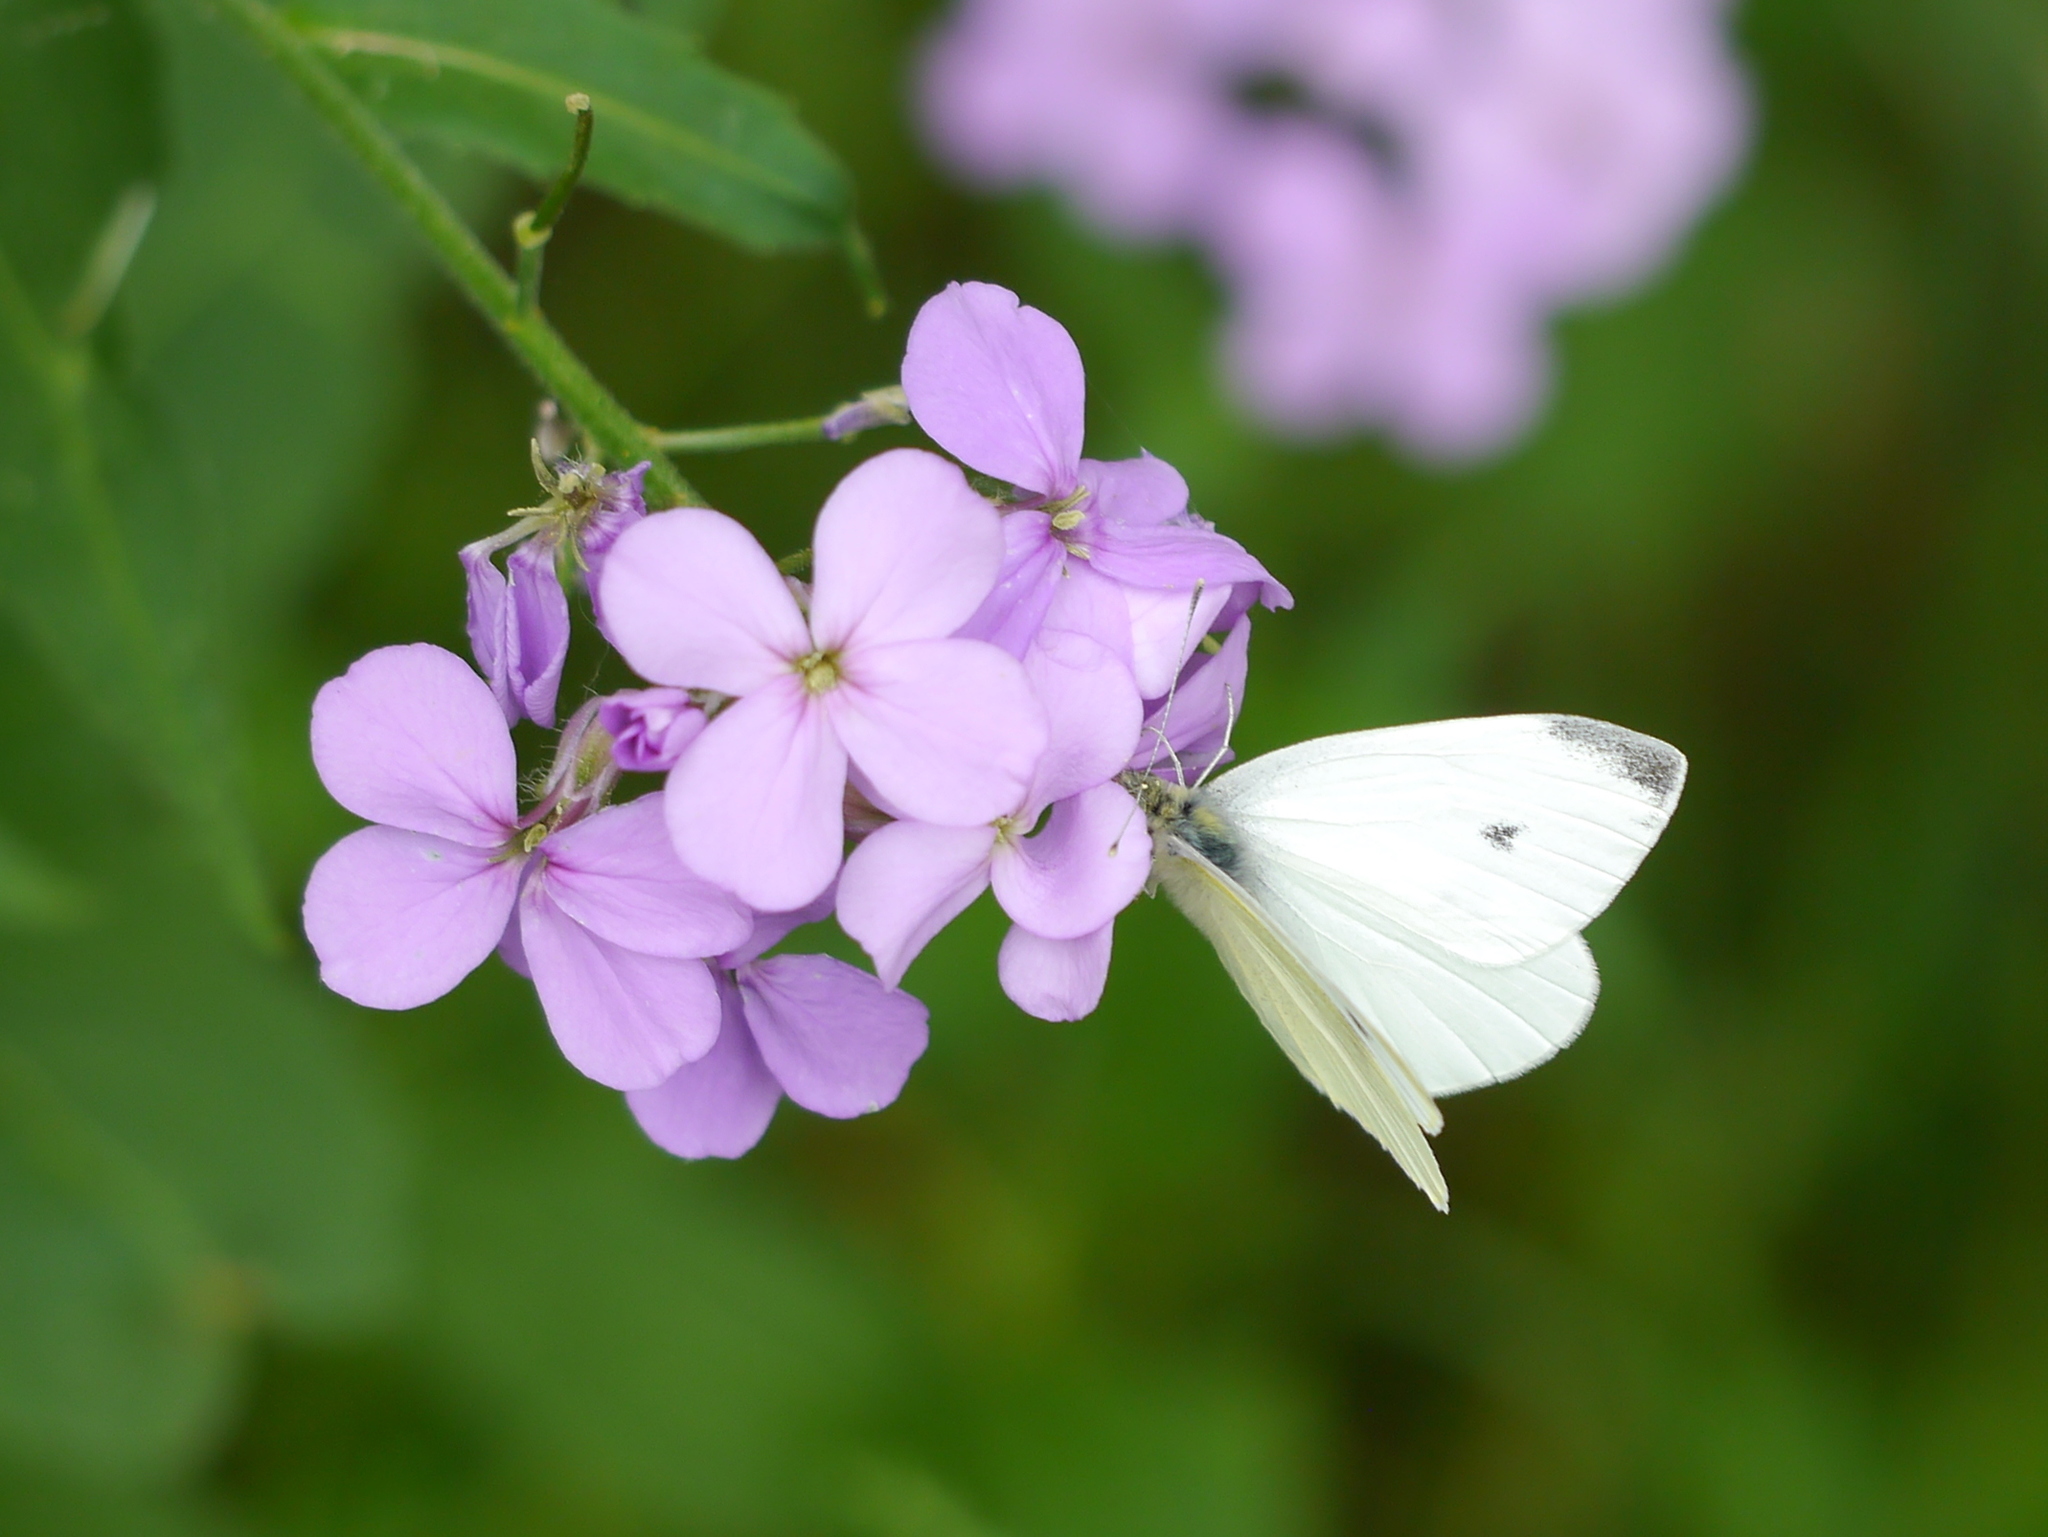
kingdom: Animalia
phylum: Arthropoda
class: Insecta
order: Lepidoptera
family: Pieridae
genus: Pieris
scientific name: Pieris rapae
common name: Small white
